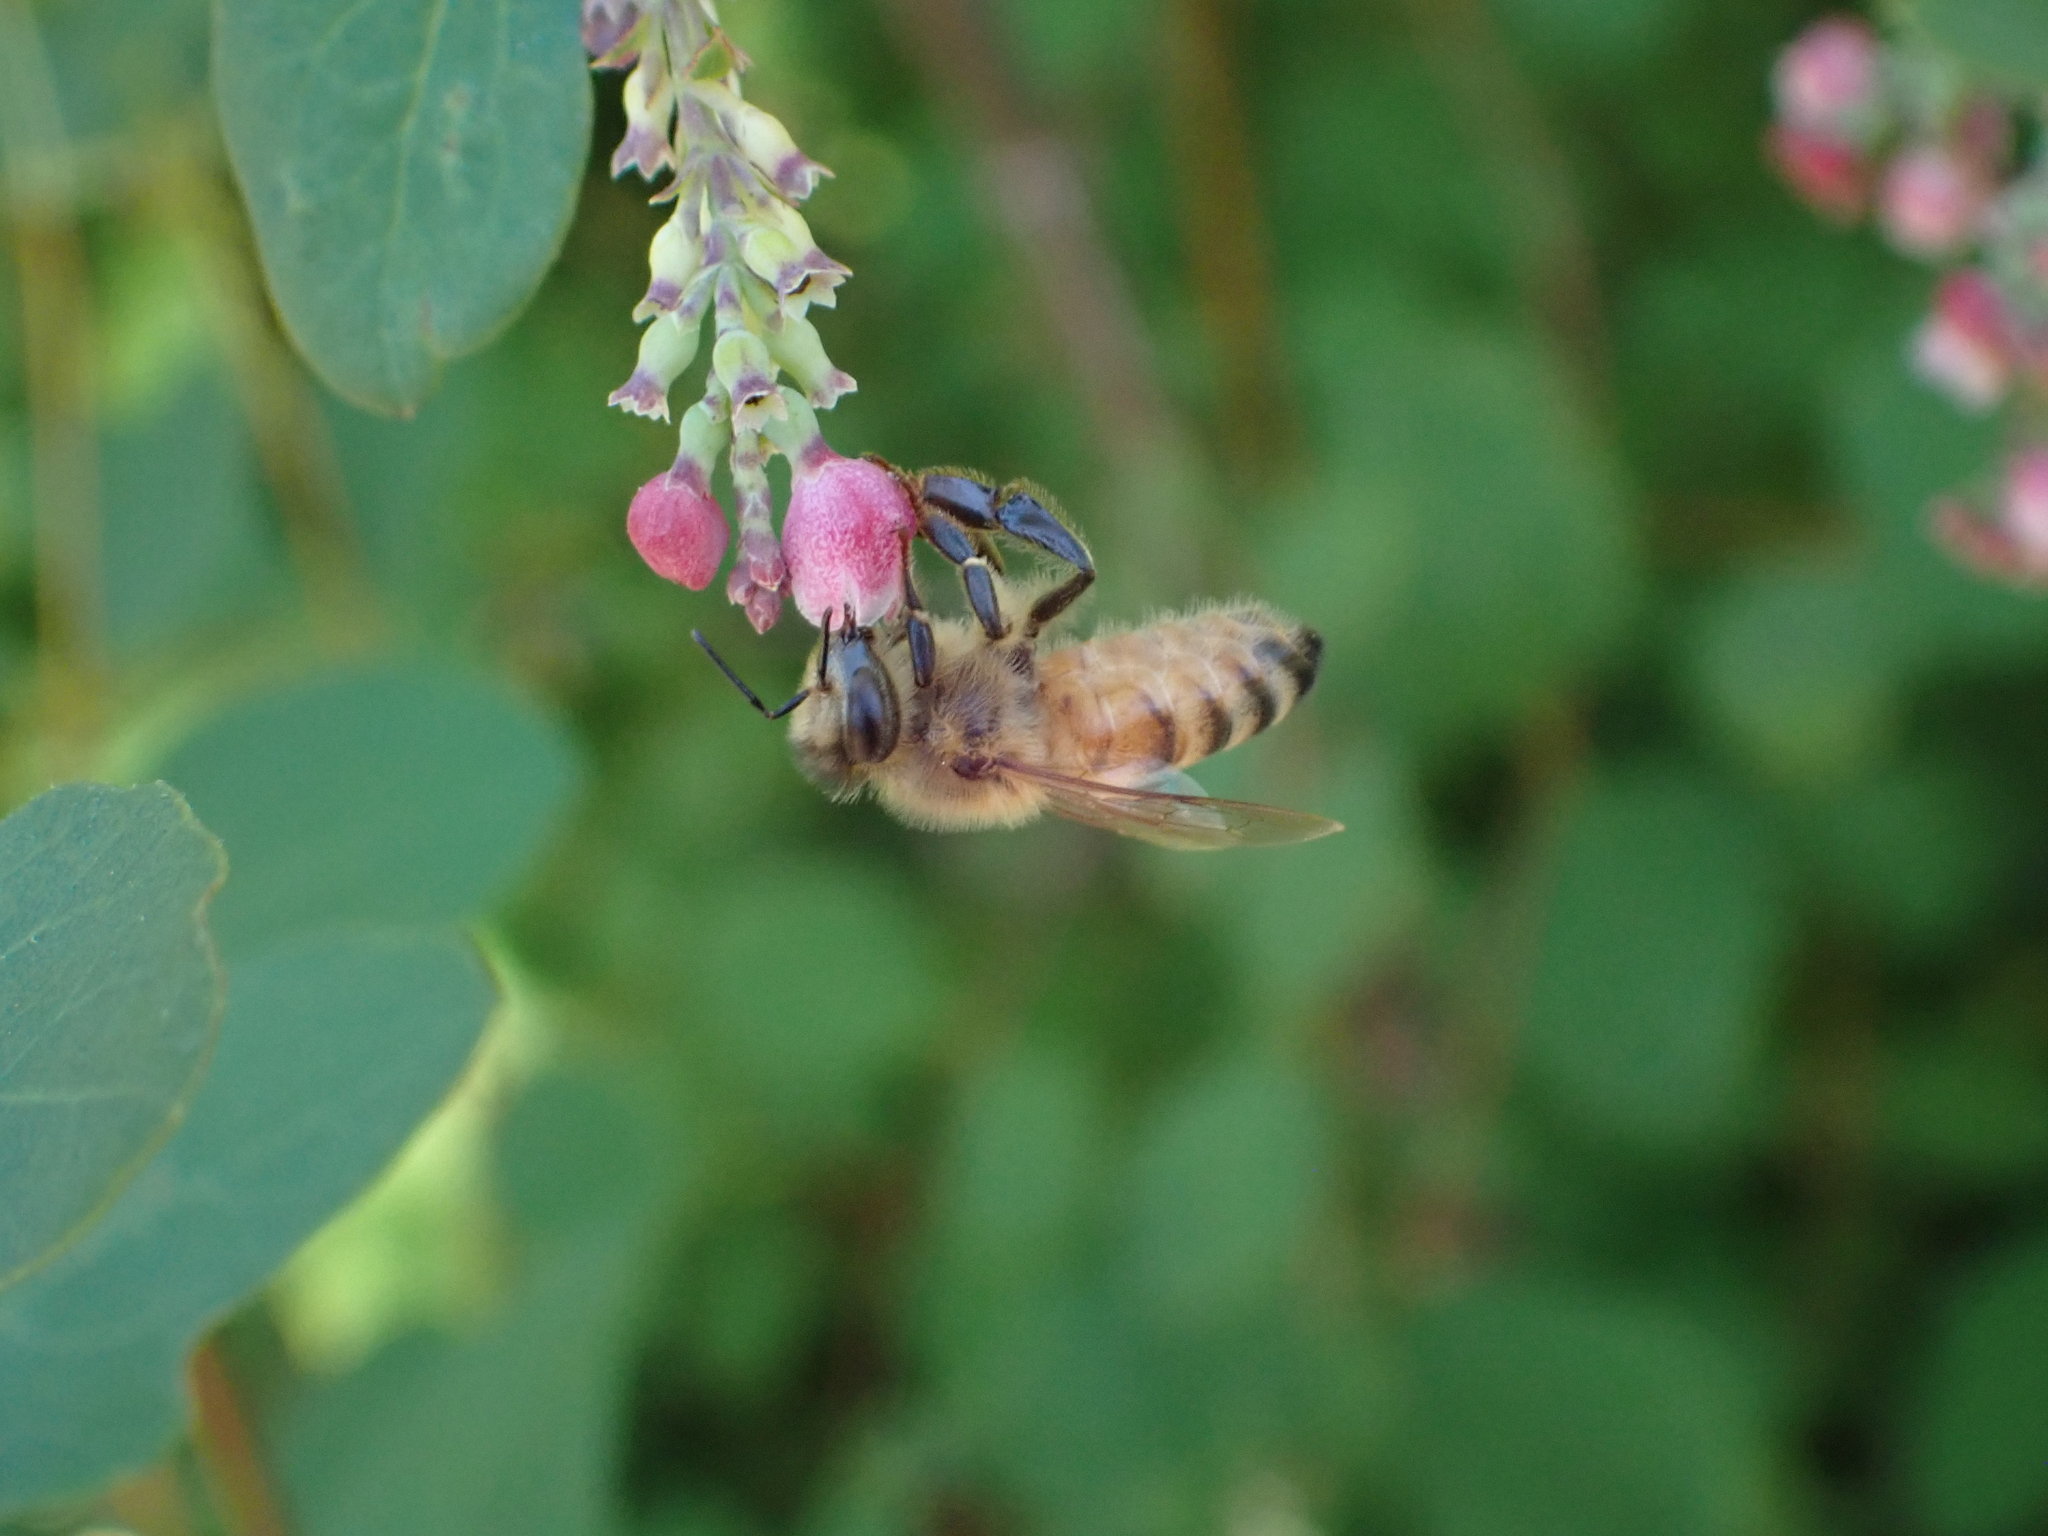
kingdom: Animalia
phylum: Arthropoda
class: Insecta
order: Hymenoptera
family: Apidae
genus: Apis
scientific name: Apis mellifera
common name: Honey bee
